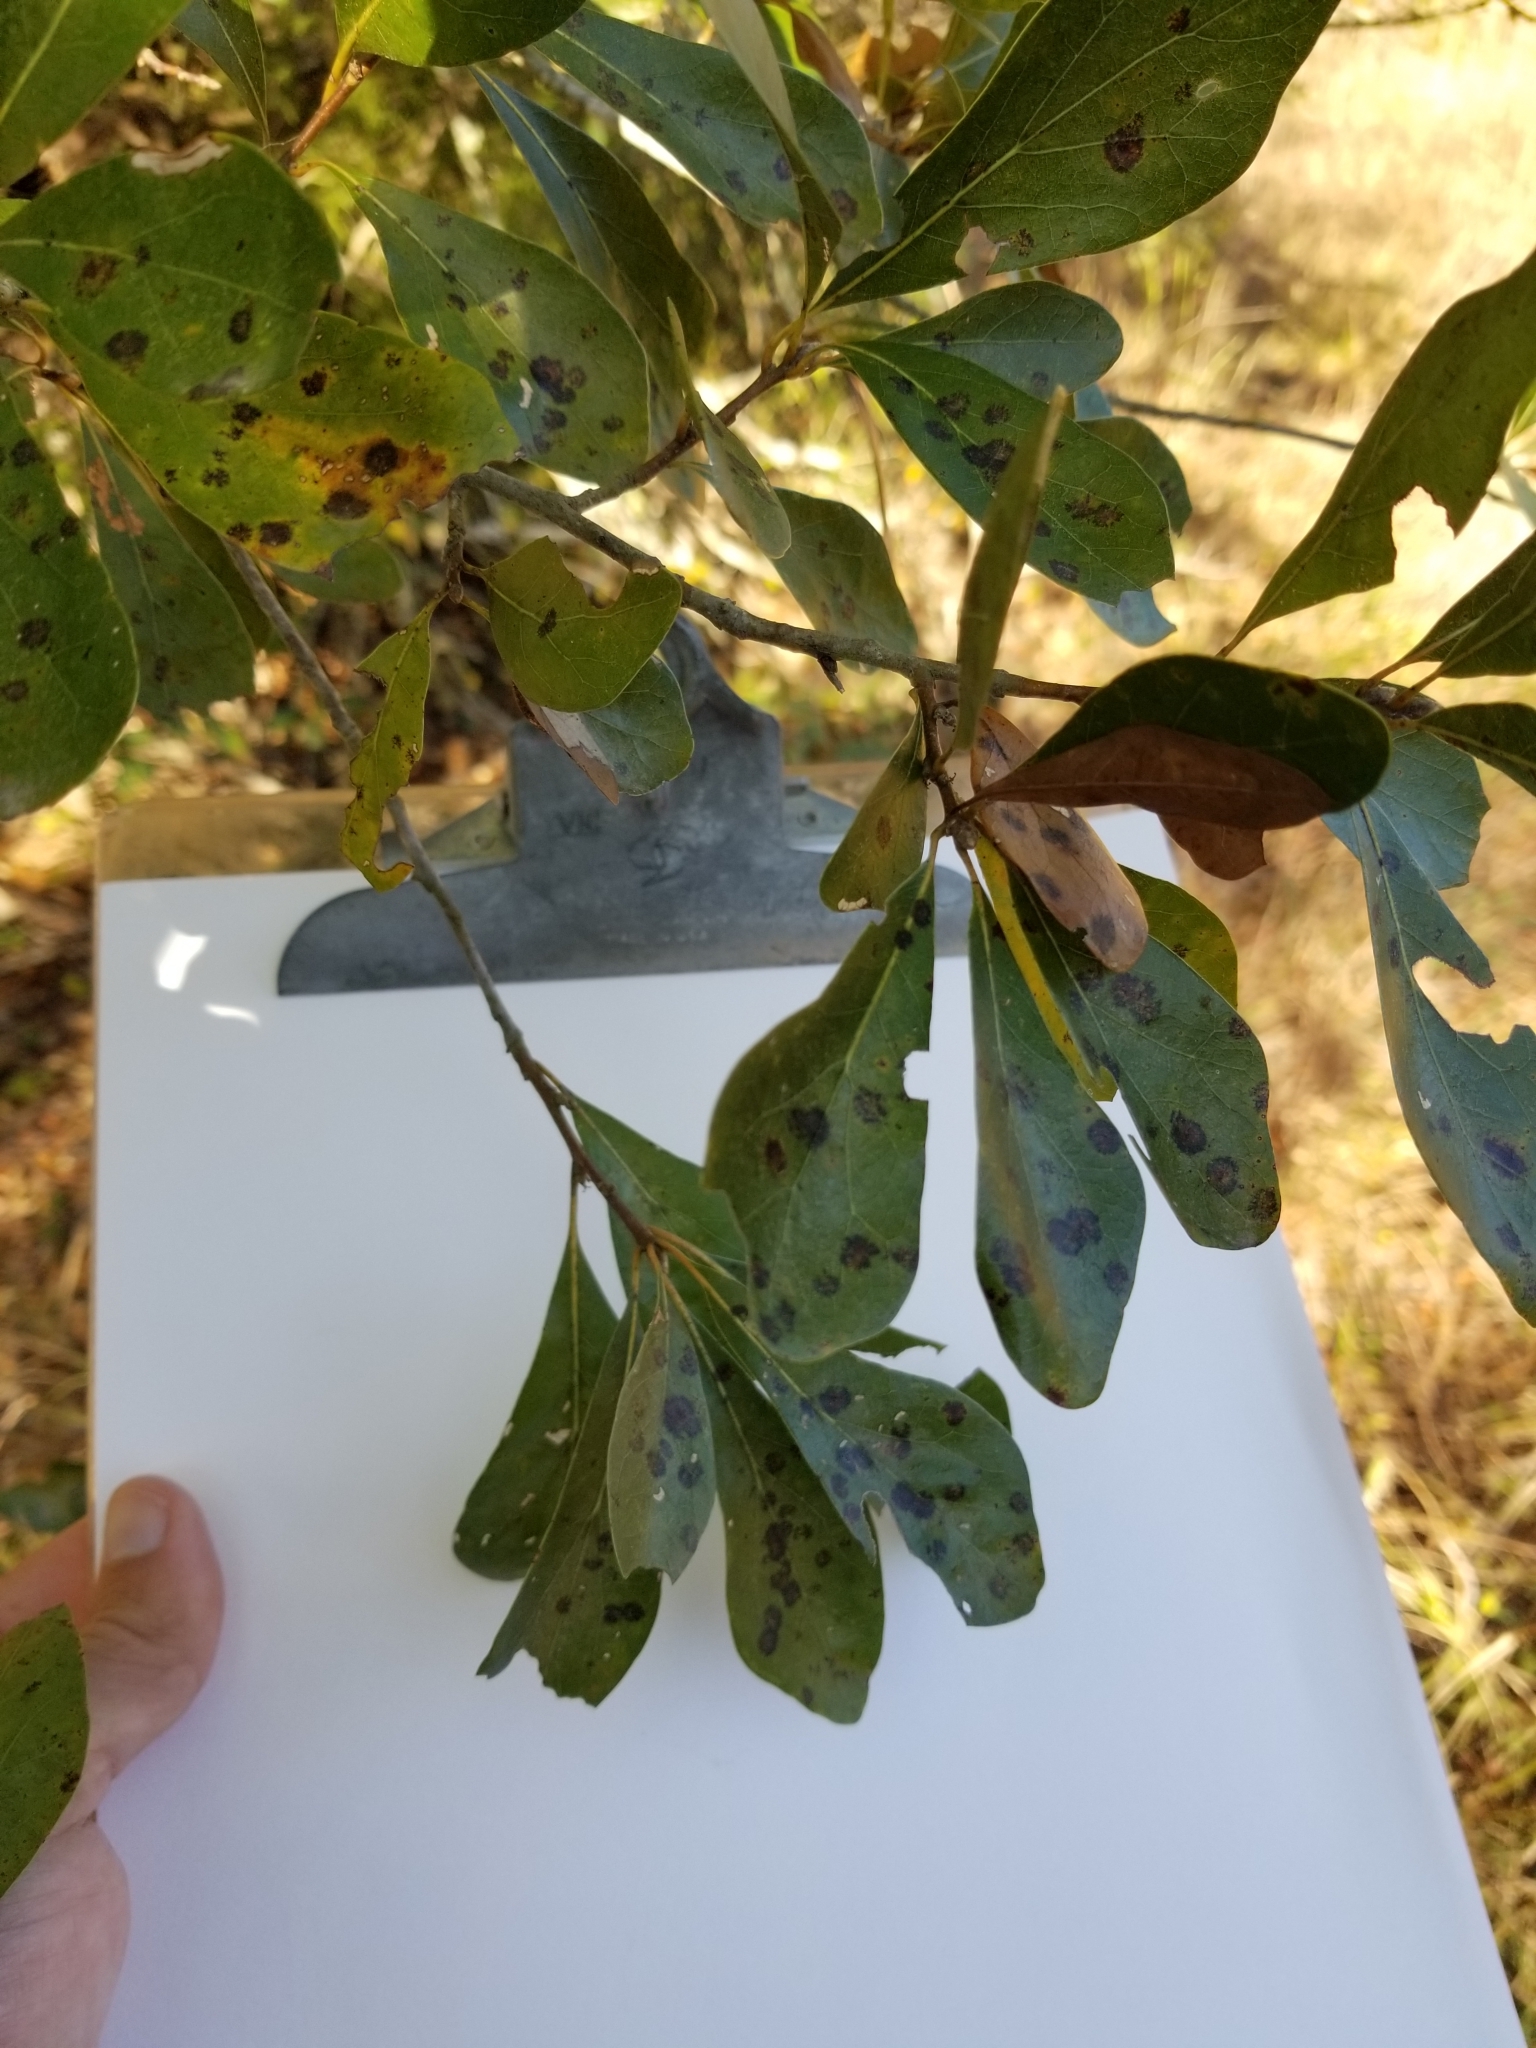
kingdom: Plantae
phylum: Tracheophyta
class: Magnoliopsida
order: Fagales
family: Fagaceae
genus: Quercus
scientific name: Quercus nigra
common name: Water oak
